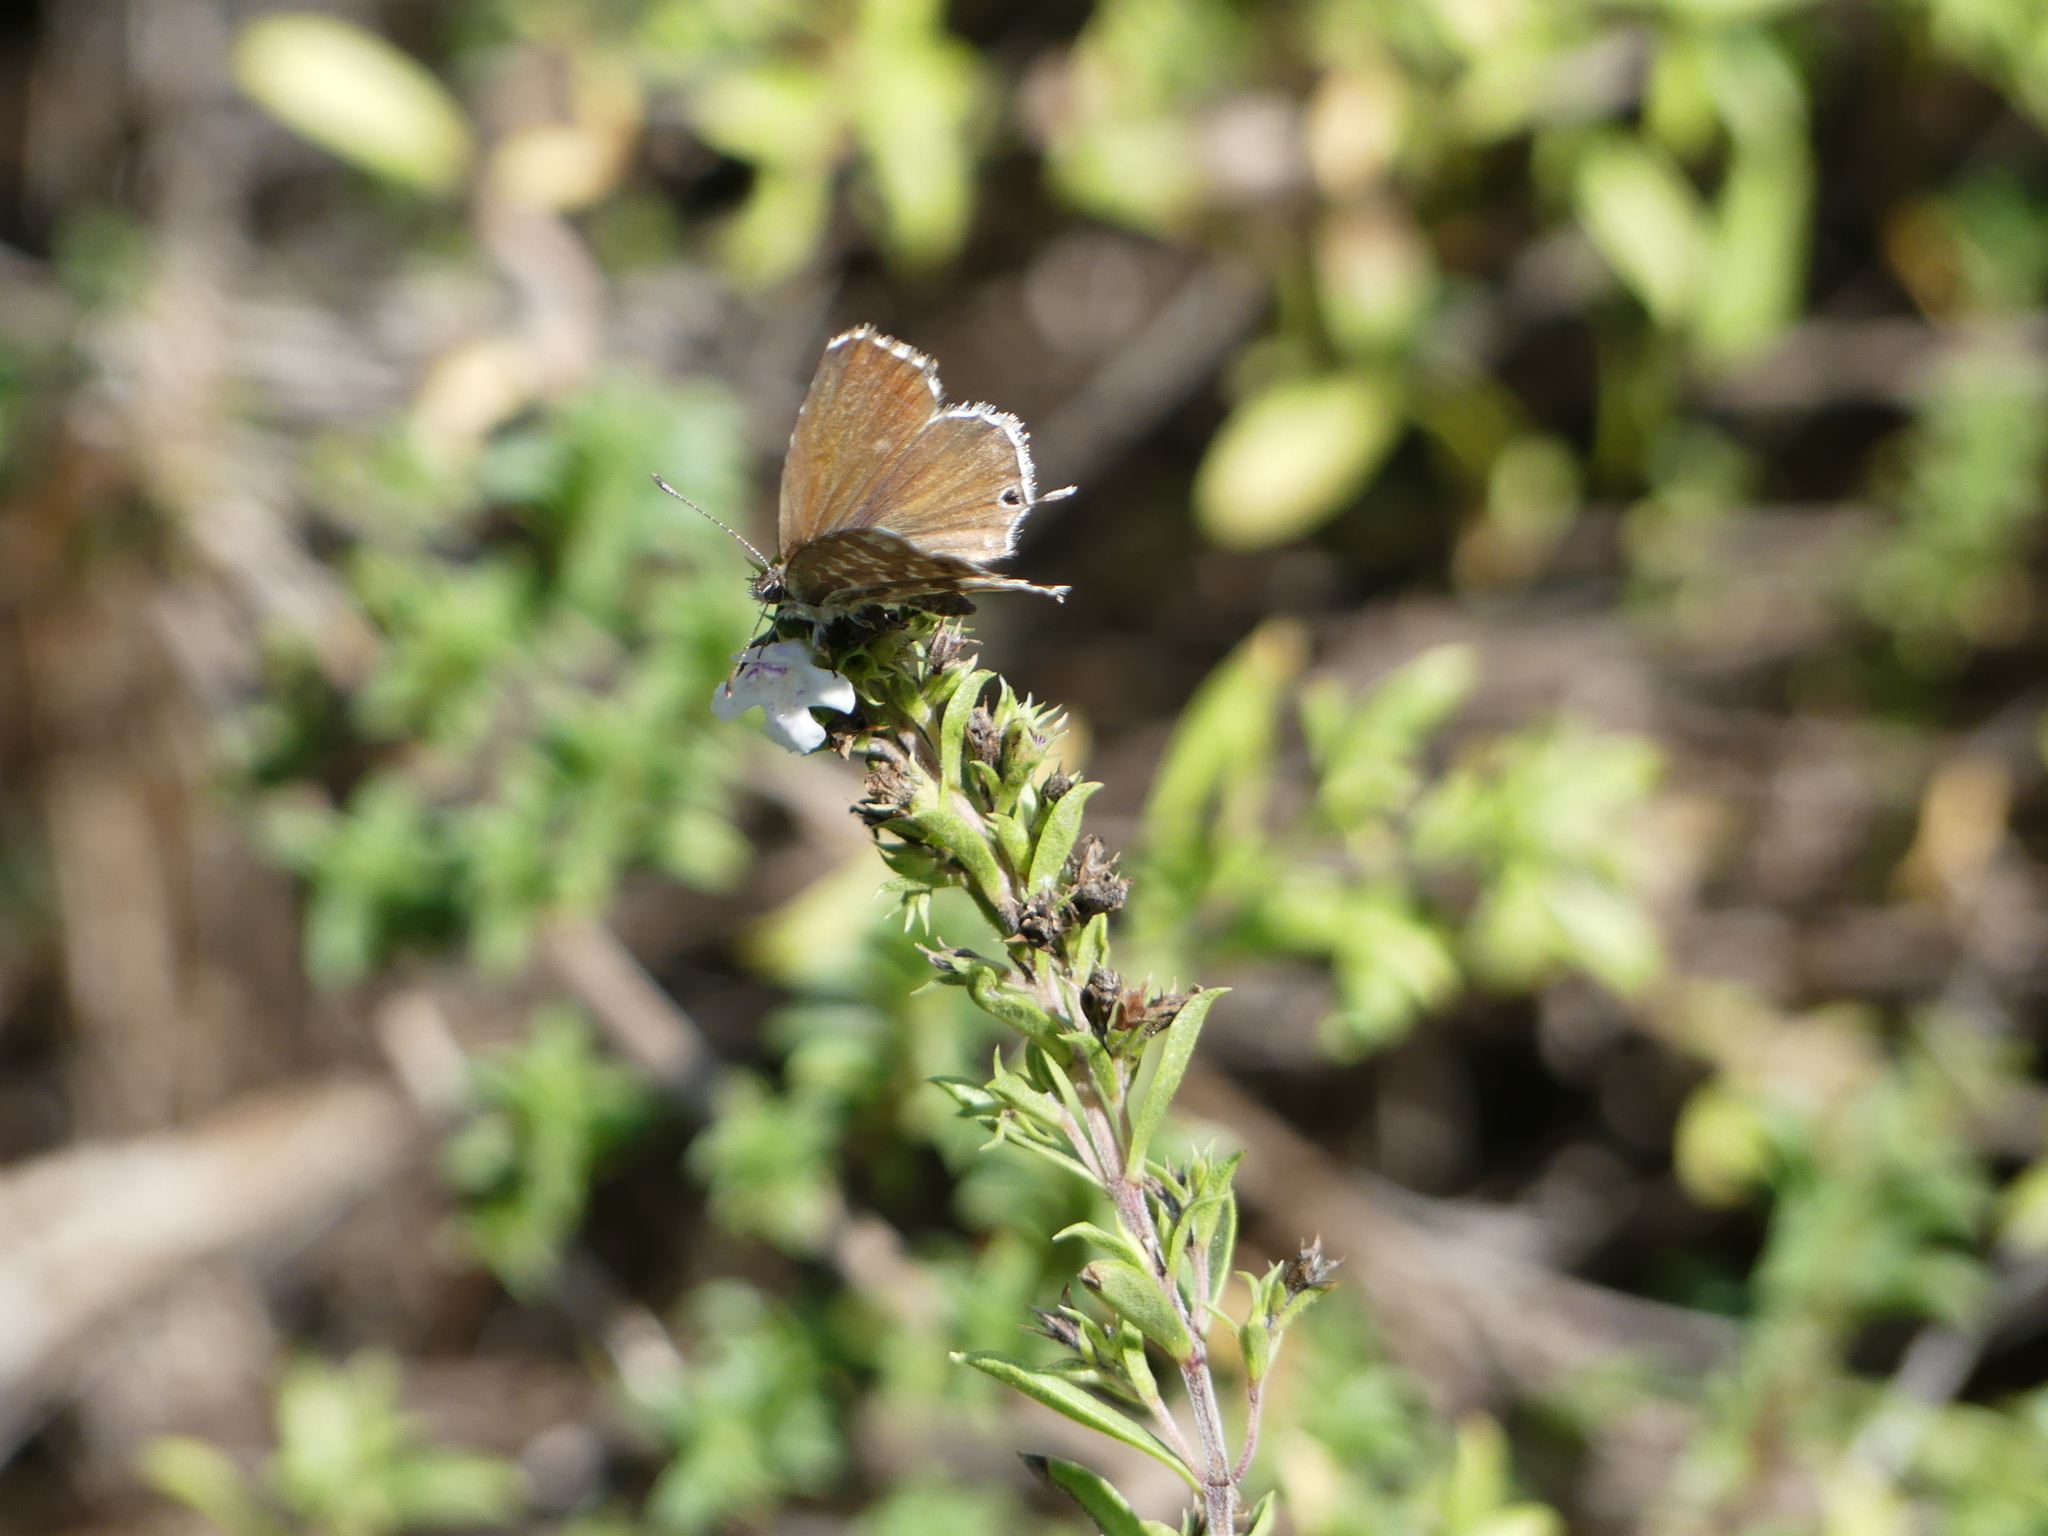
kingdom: Animalia
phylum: Arthropoda
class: Insecta
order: Lepidoptera
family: Lycaenidae
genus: Cacyreus
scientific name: Cacyreus marshalli
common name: Geranium bronze
